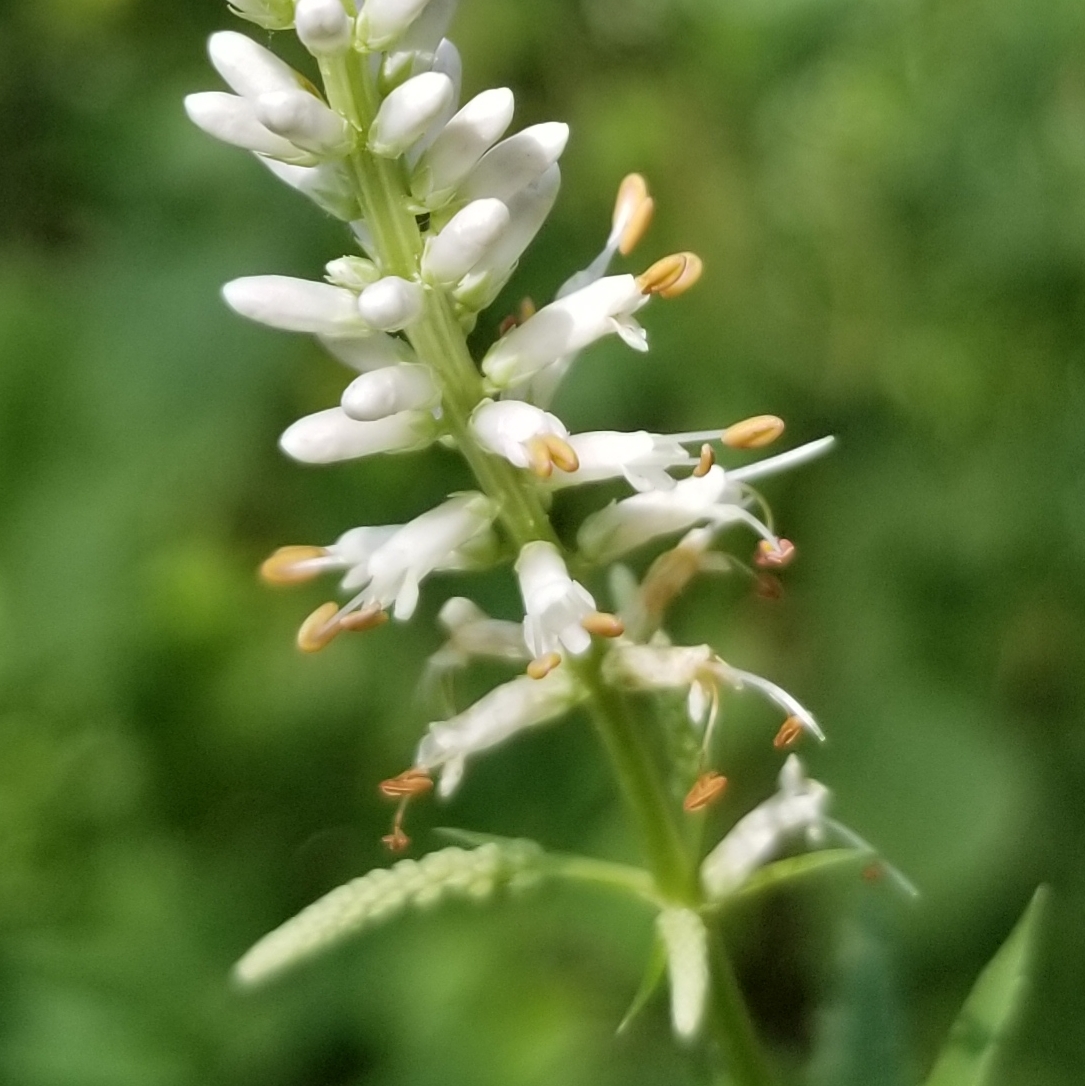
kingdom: Plantae
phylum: Tracheophyta
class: Magnoliopsida
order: Lamiales
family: Plantaginaceae
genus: Veronicastrum
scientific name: Veronicastrum virginicum
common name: Blackroot
